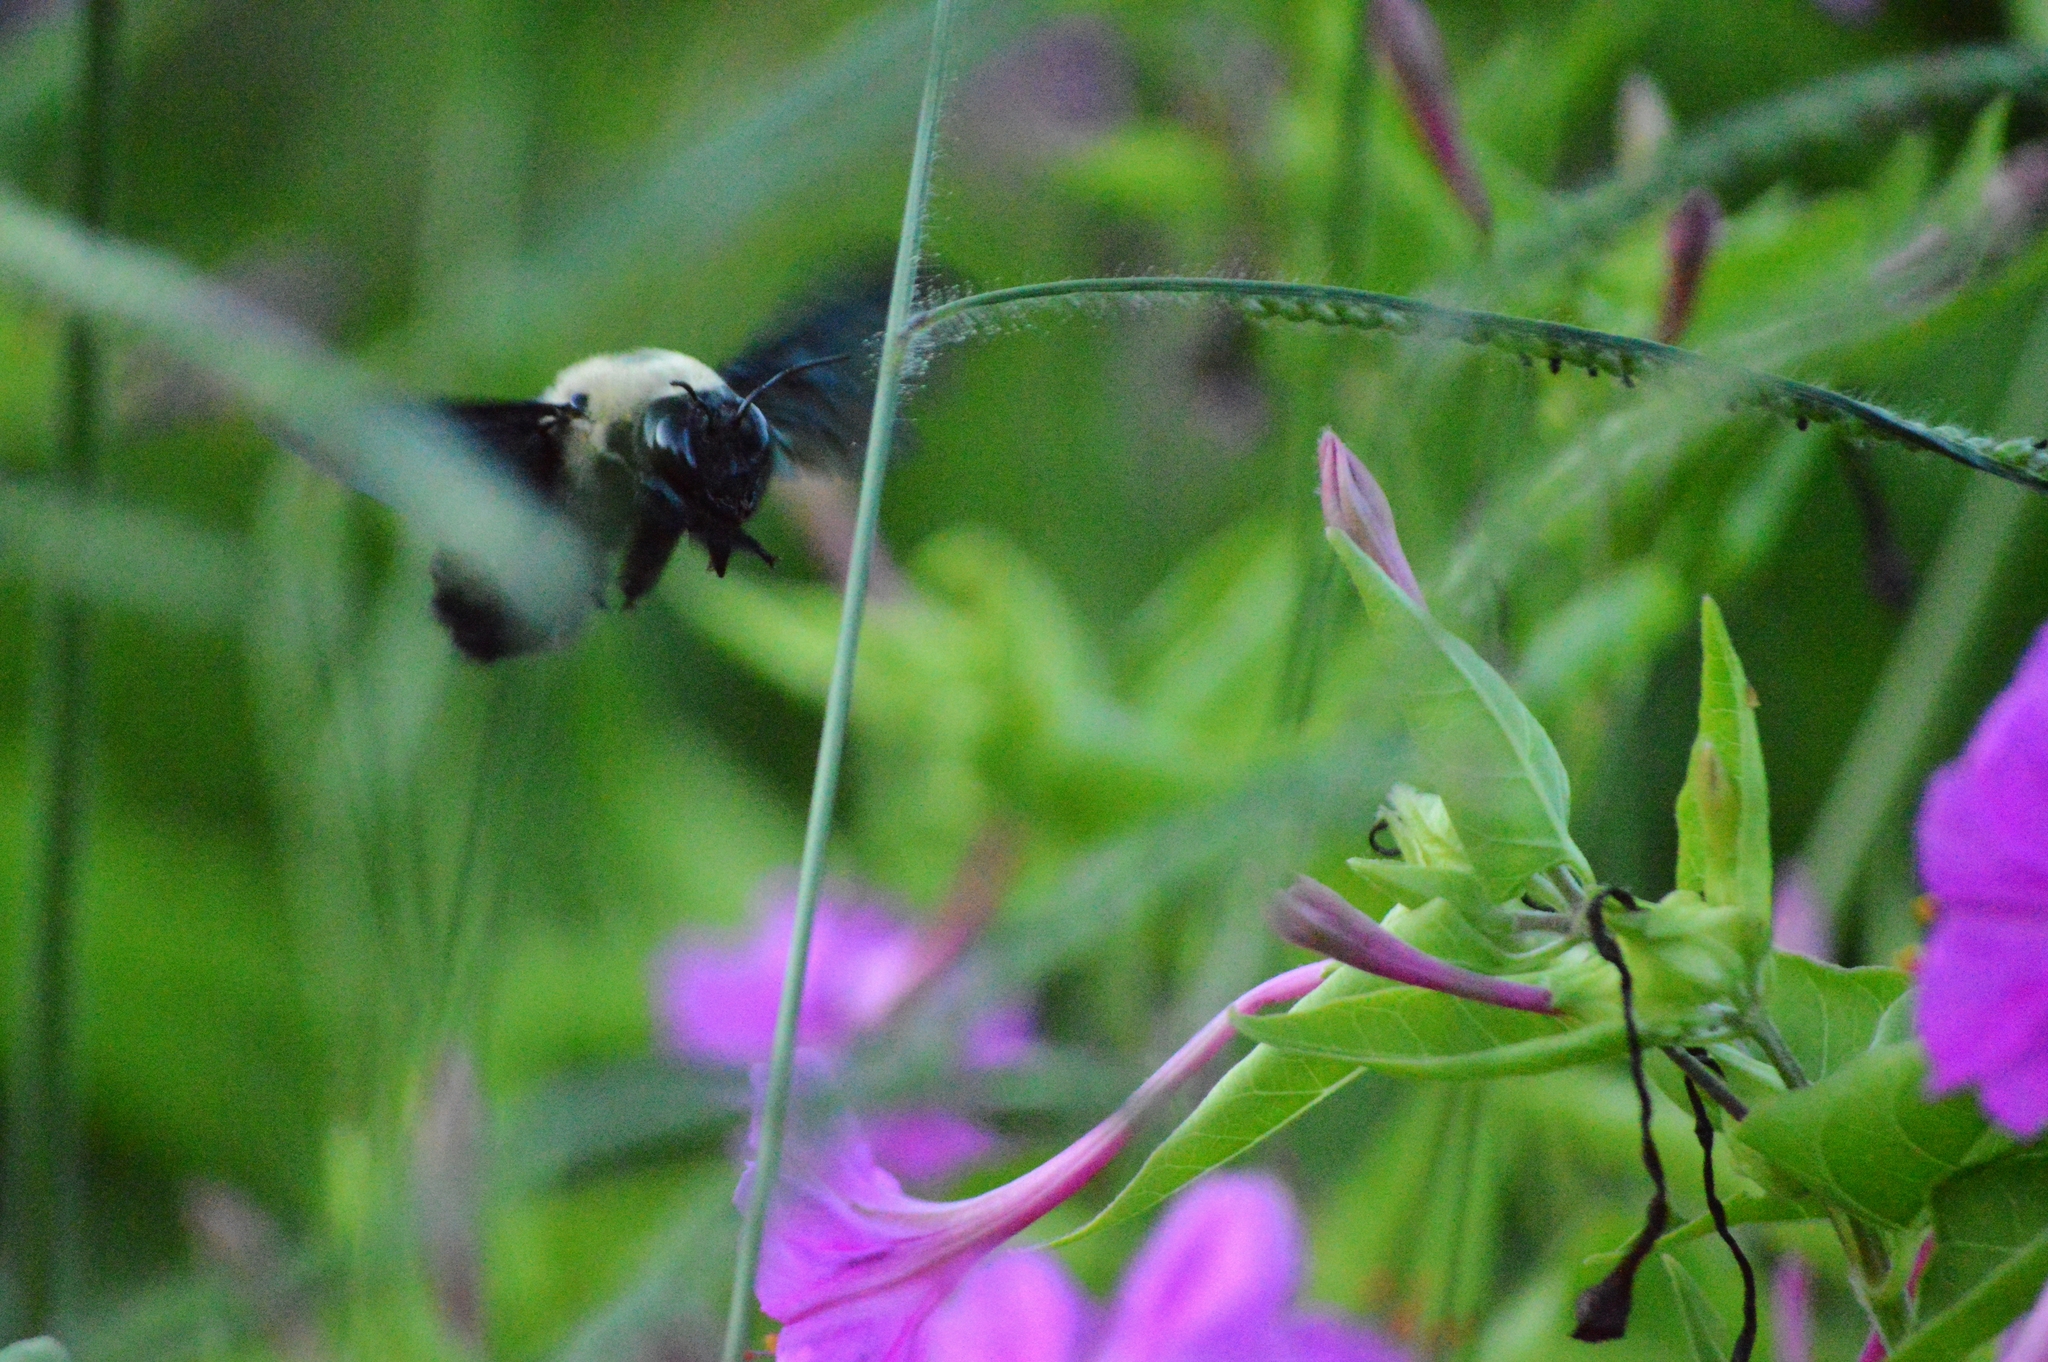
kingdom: Animalia
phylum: Arthropoda
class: Insecta
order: Hymenoptera
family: Apidae
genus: Xylocopa
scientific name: Xylocopa grisescens
